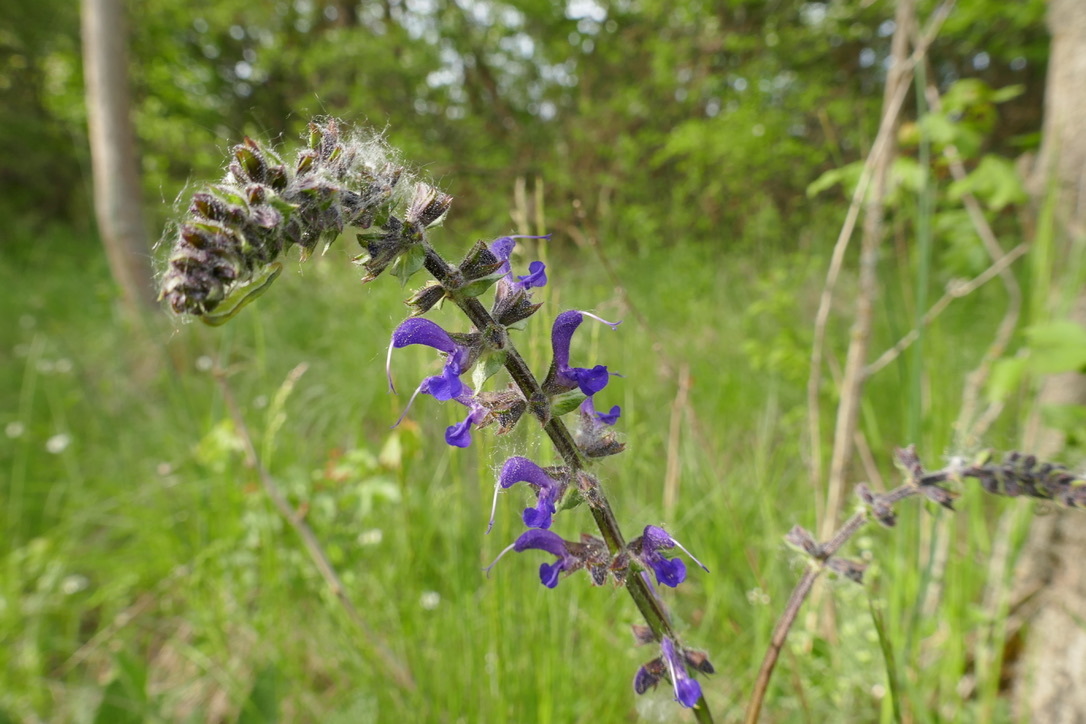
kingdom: Plantae
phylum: Tracheophyta
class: Magnoliopsida
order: Lamiales
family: Lamiaceae
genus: Salvia
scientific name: Salvia pratensis
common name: Meadow sage
